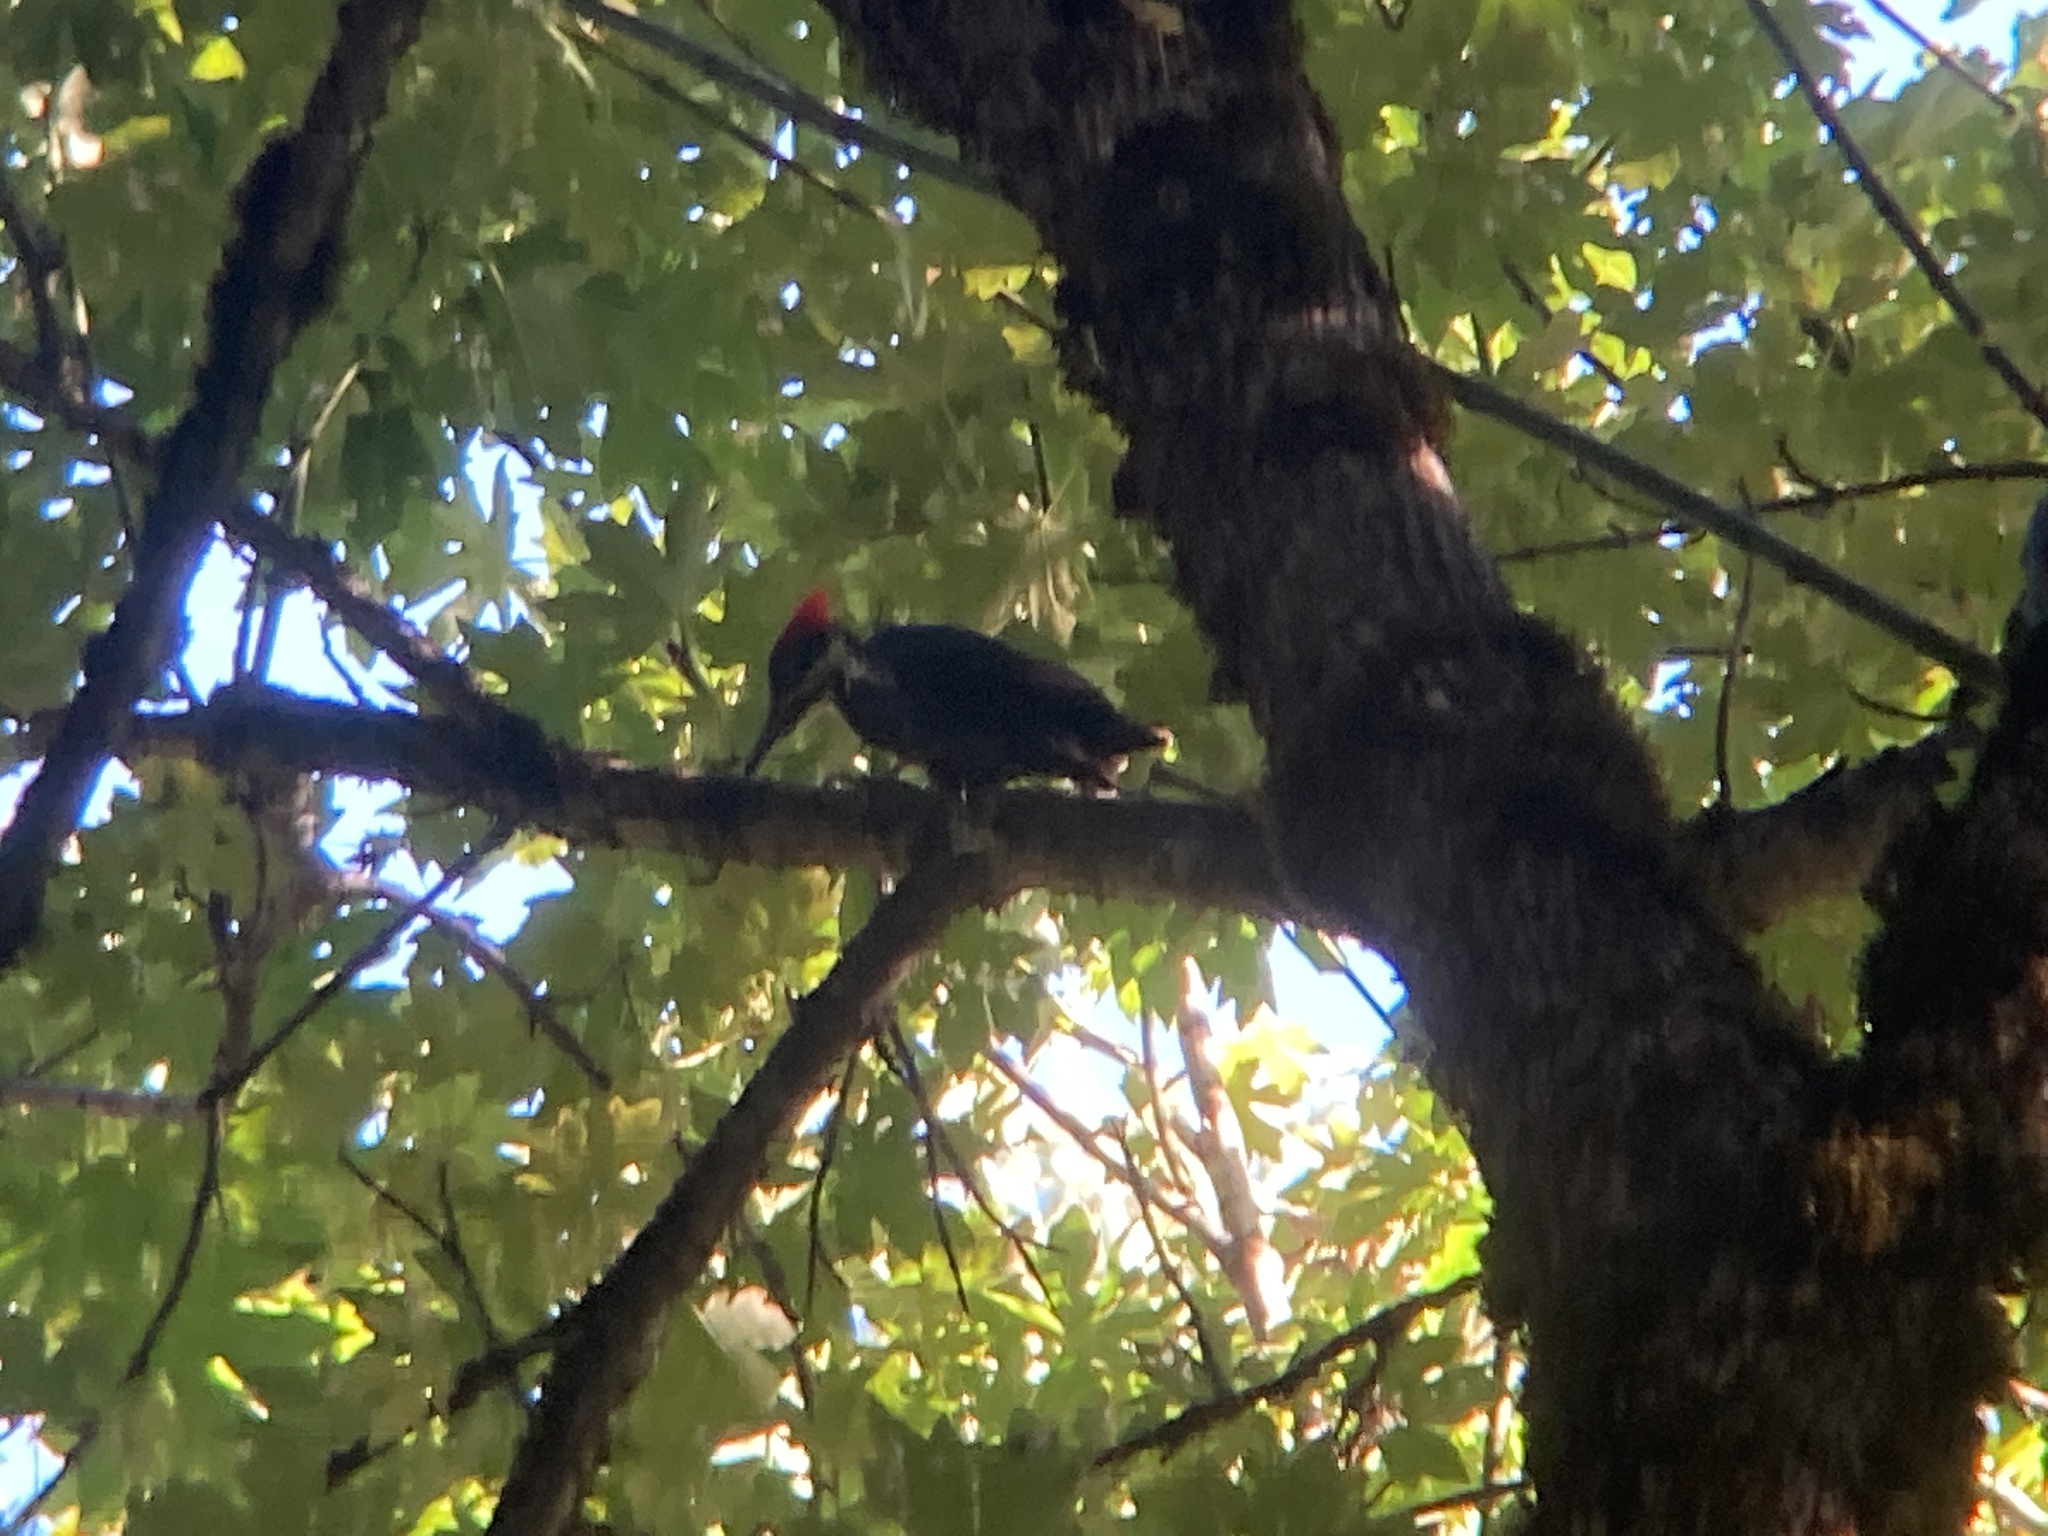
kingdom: Animalia
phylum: Chordata
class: Aves
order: Piciformes
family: Picidae
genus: Dryocopus
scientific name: Dryocopus pileatus
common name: Pileated woodpecker
